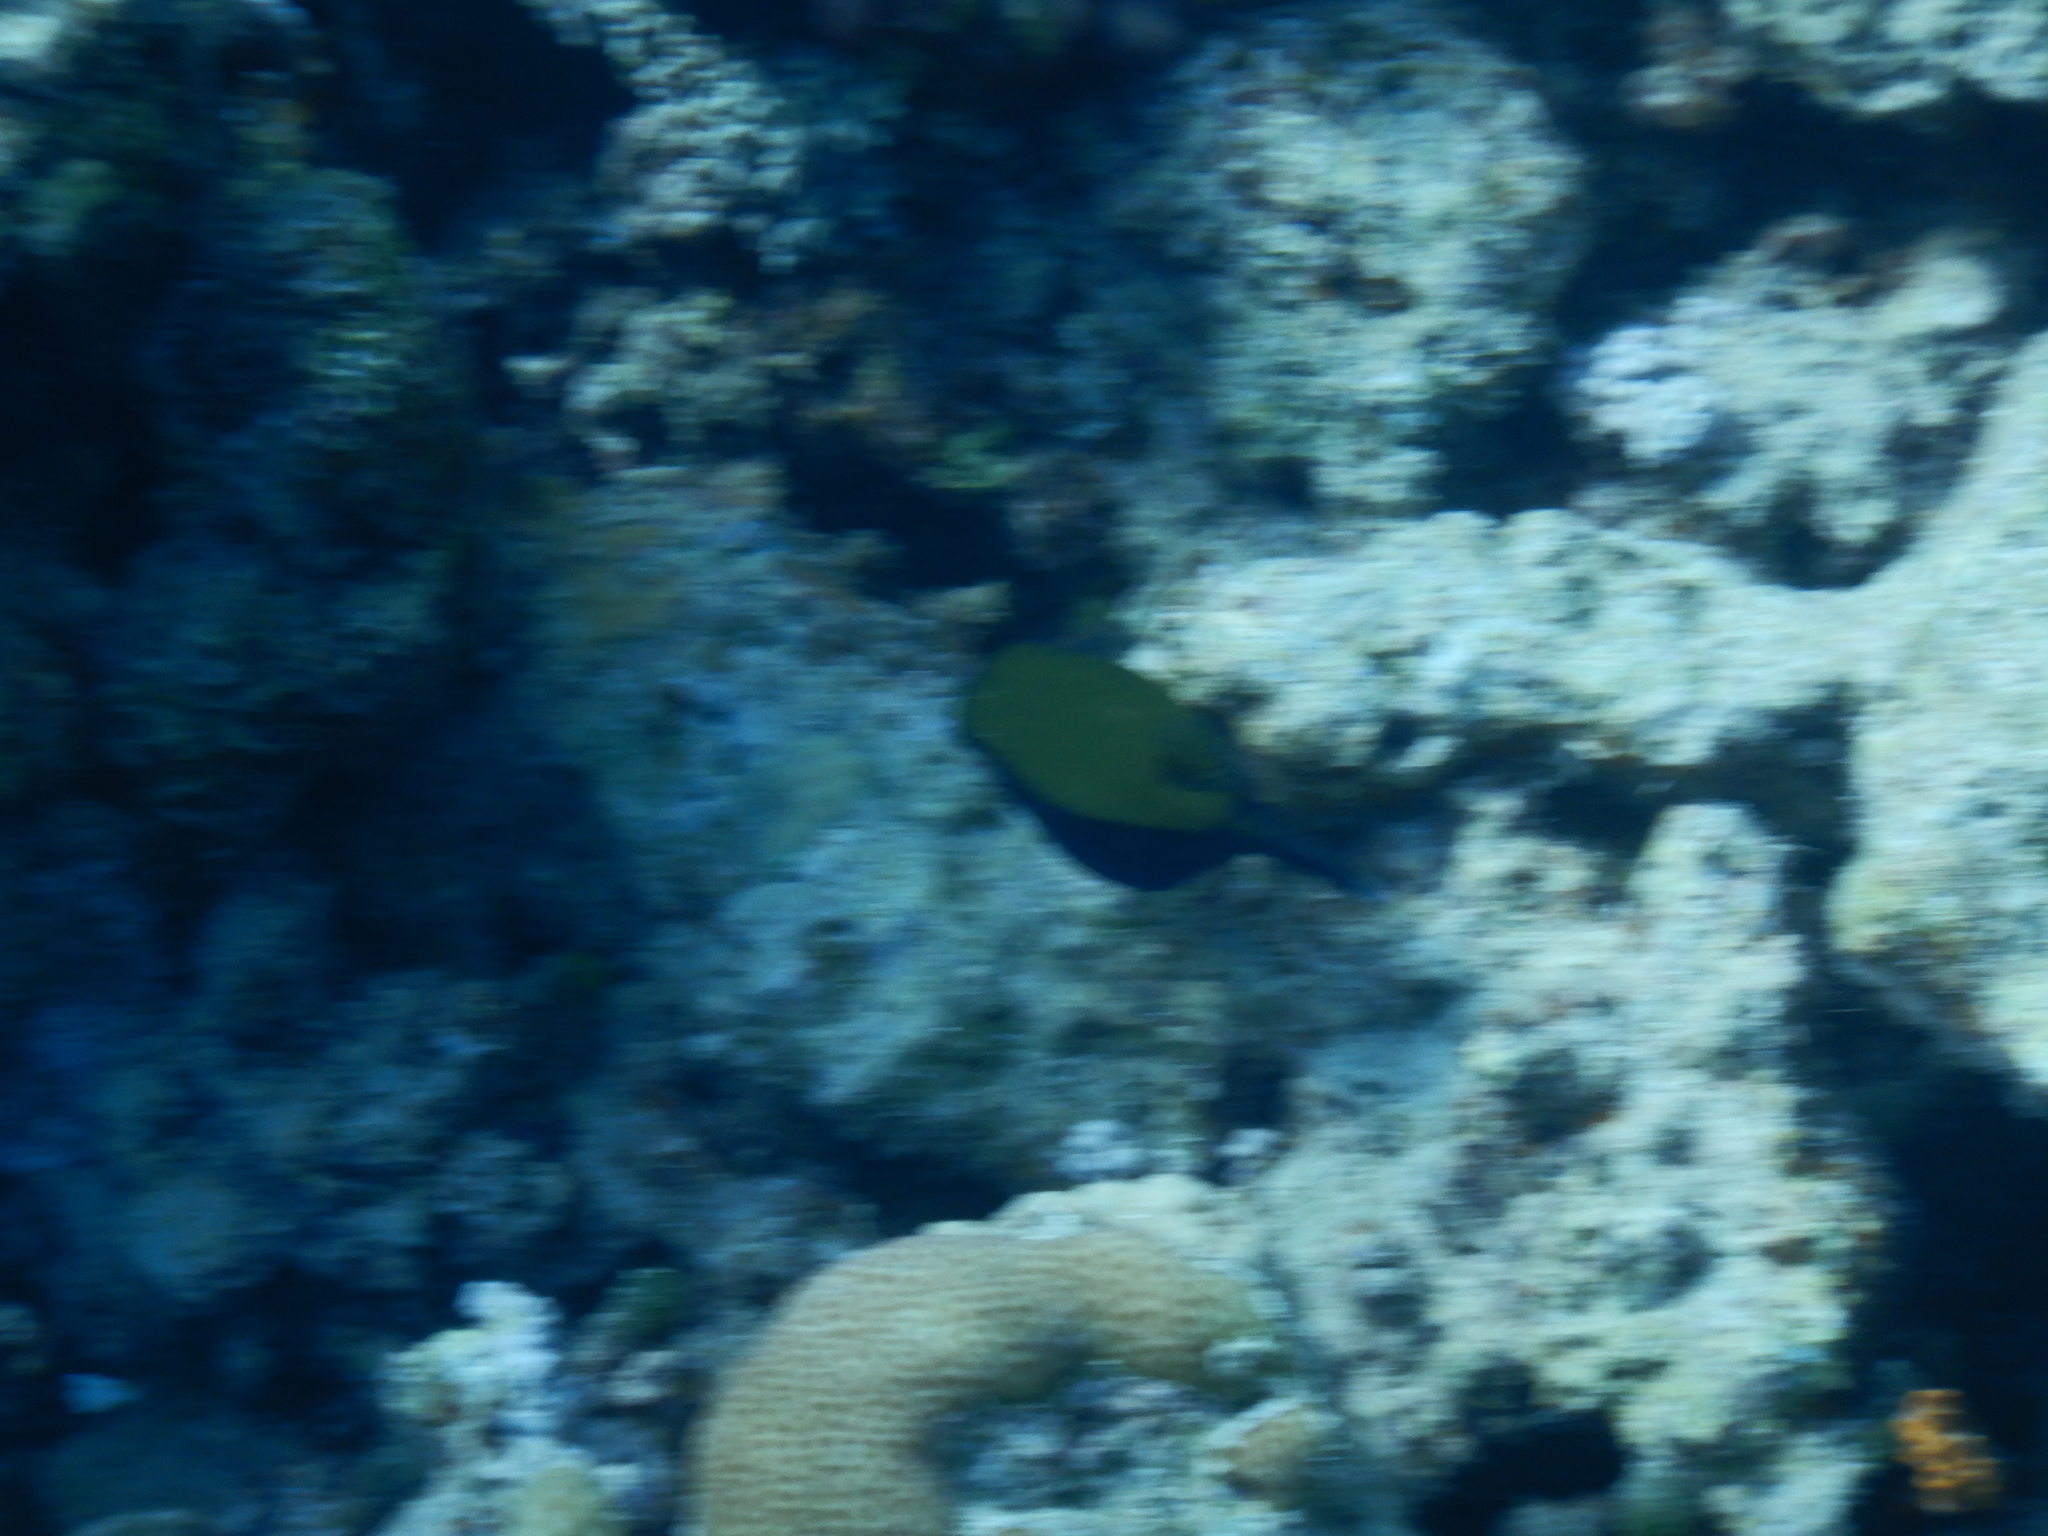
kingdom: Animalia
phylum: Chordata
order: Tetraodontiformes
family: Ostraciidae
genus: Ostracion
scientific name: Ostracion cyanurus
